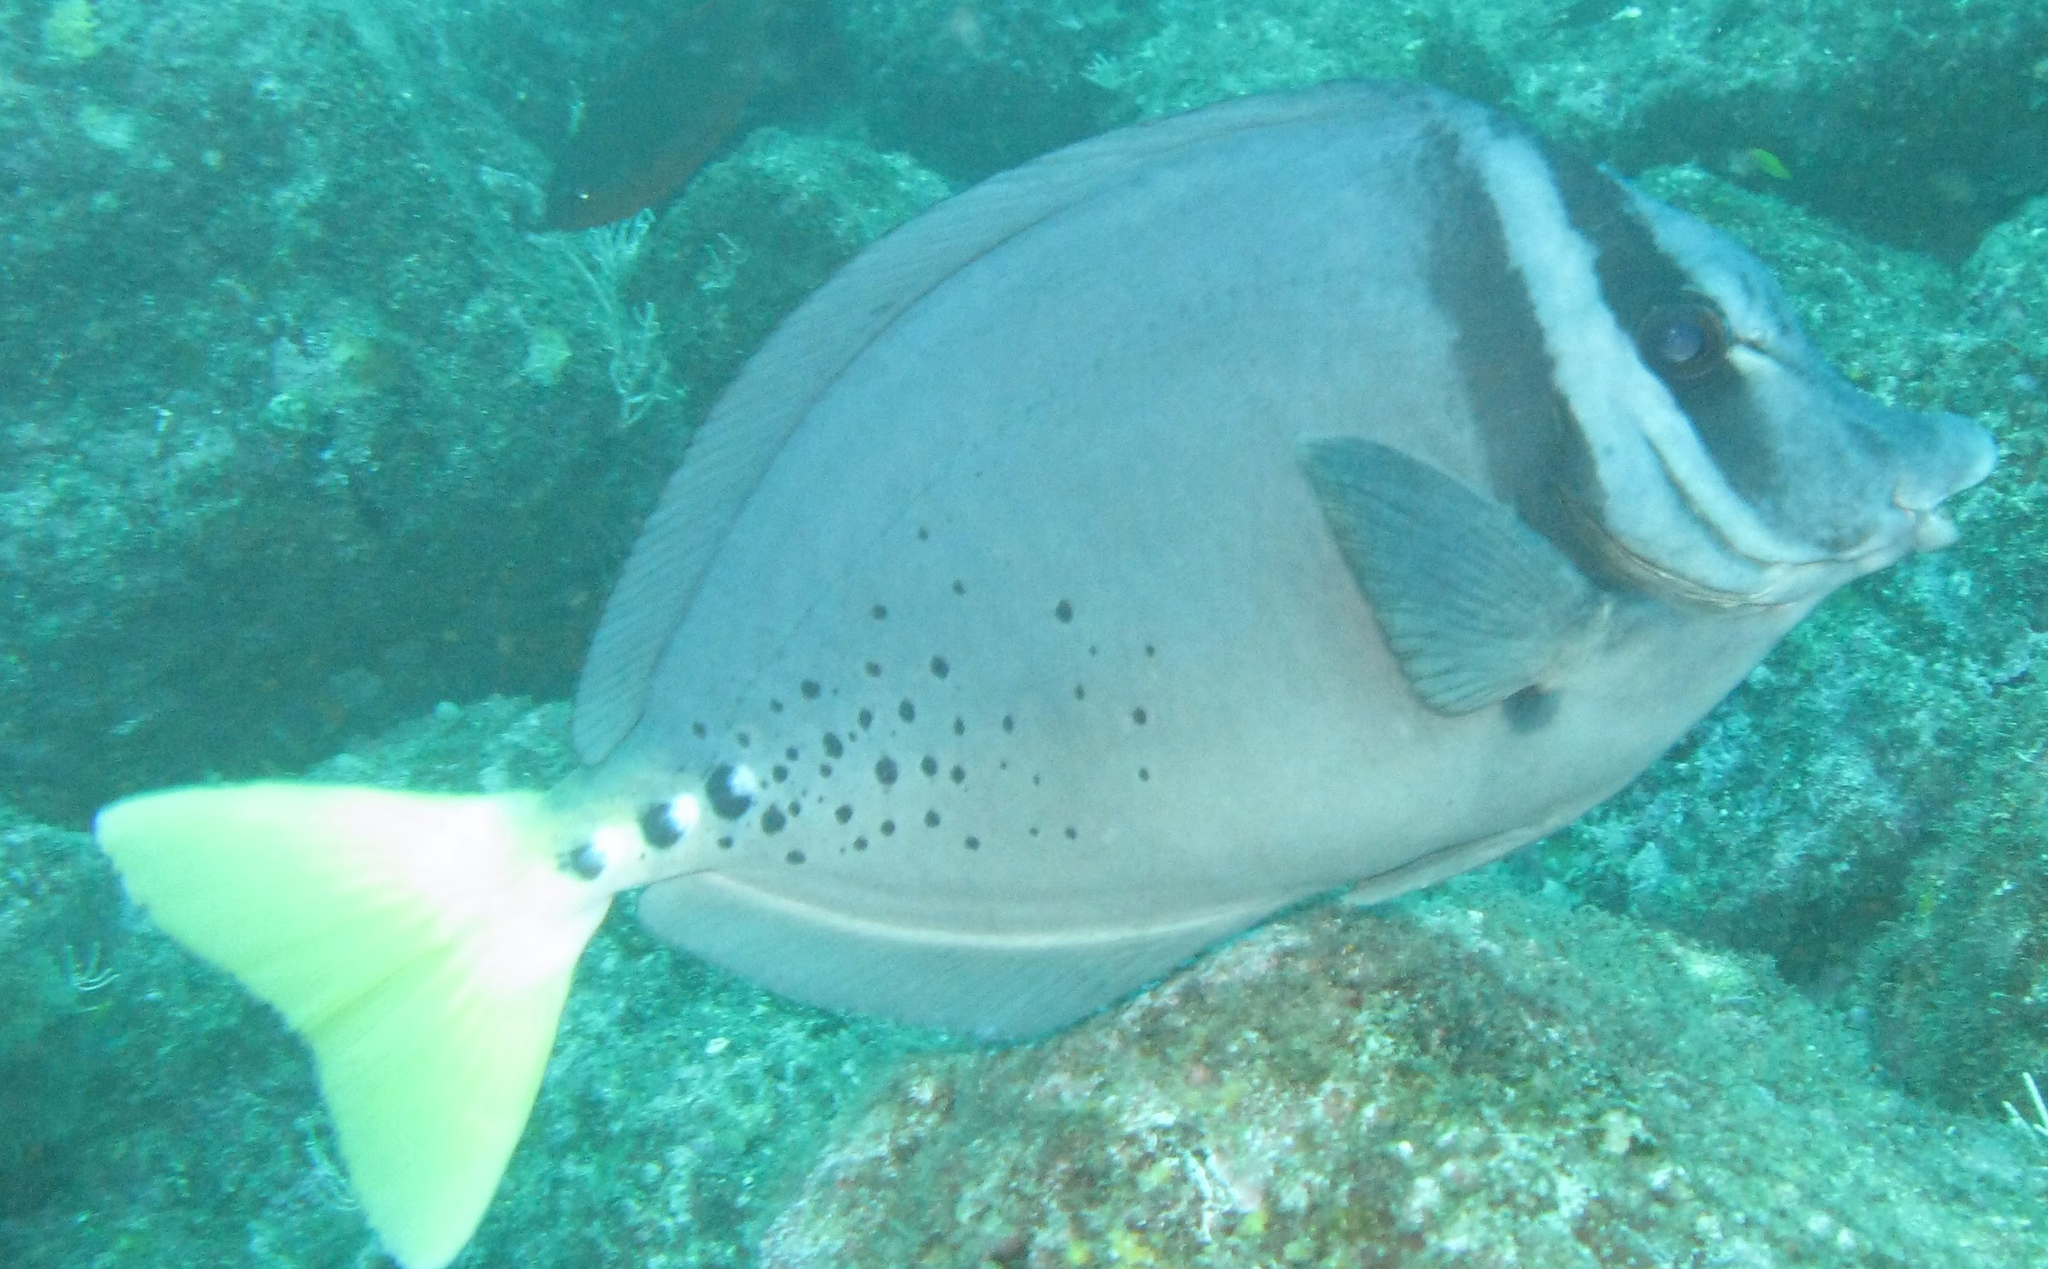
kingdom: Animalia
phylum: Chordata
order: Perciformes
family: Acanthuridae
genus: Prionurus
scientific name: Prionurus laticlavius
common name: Razor surgeonfish
